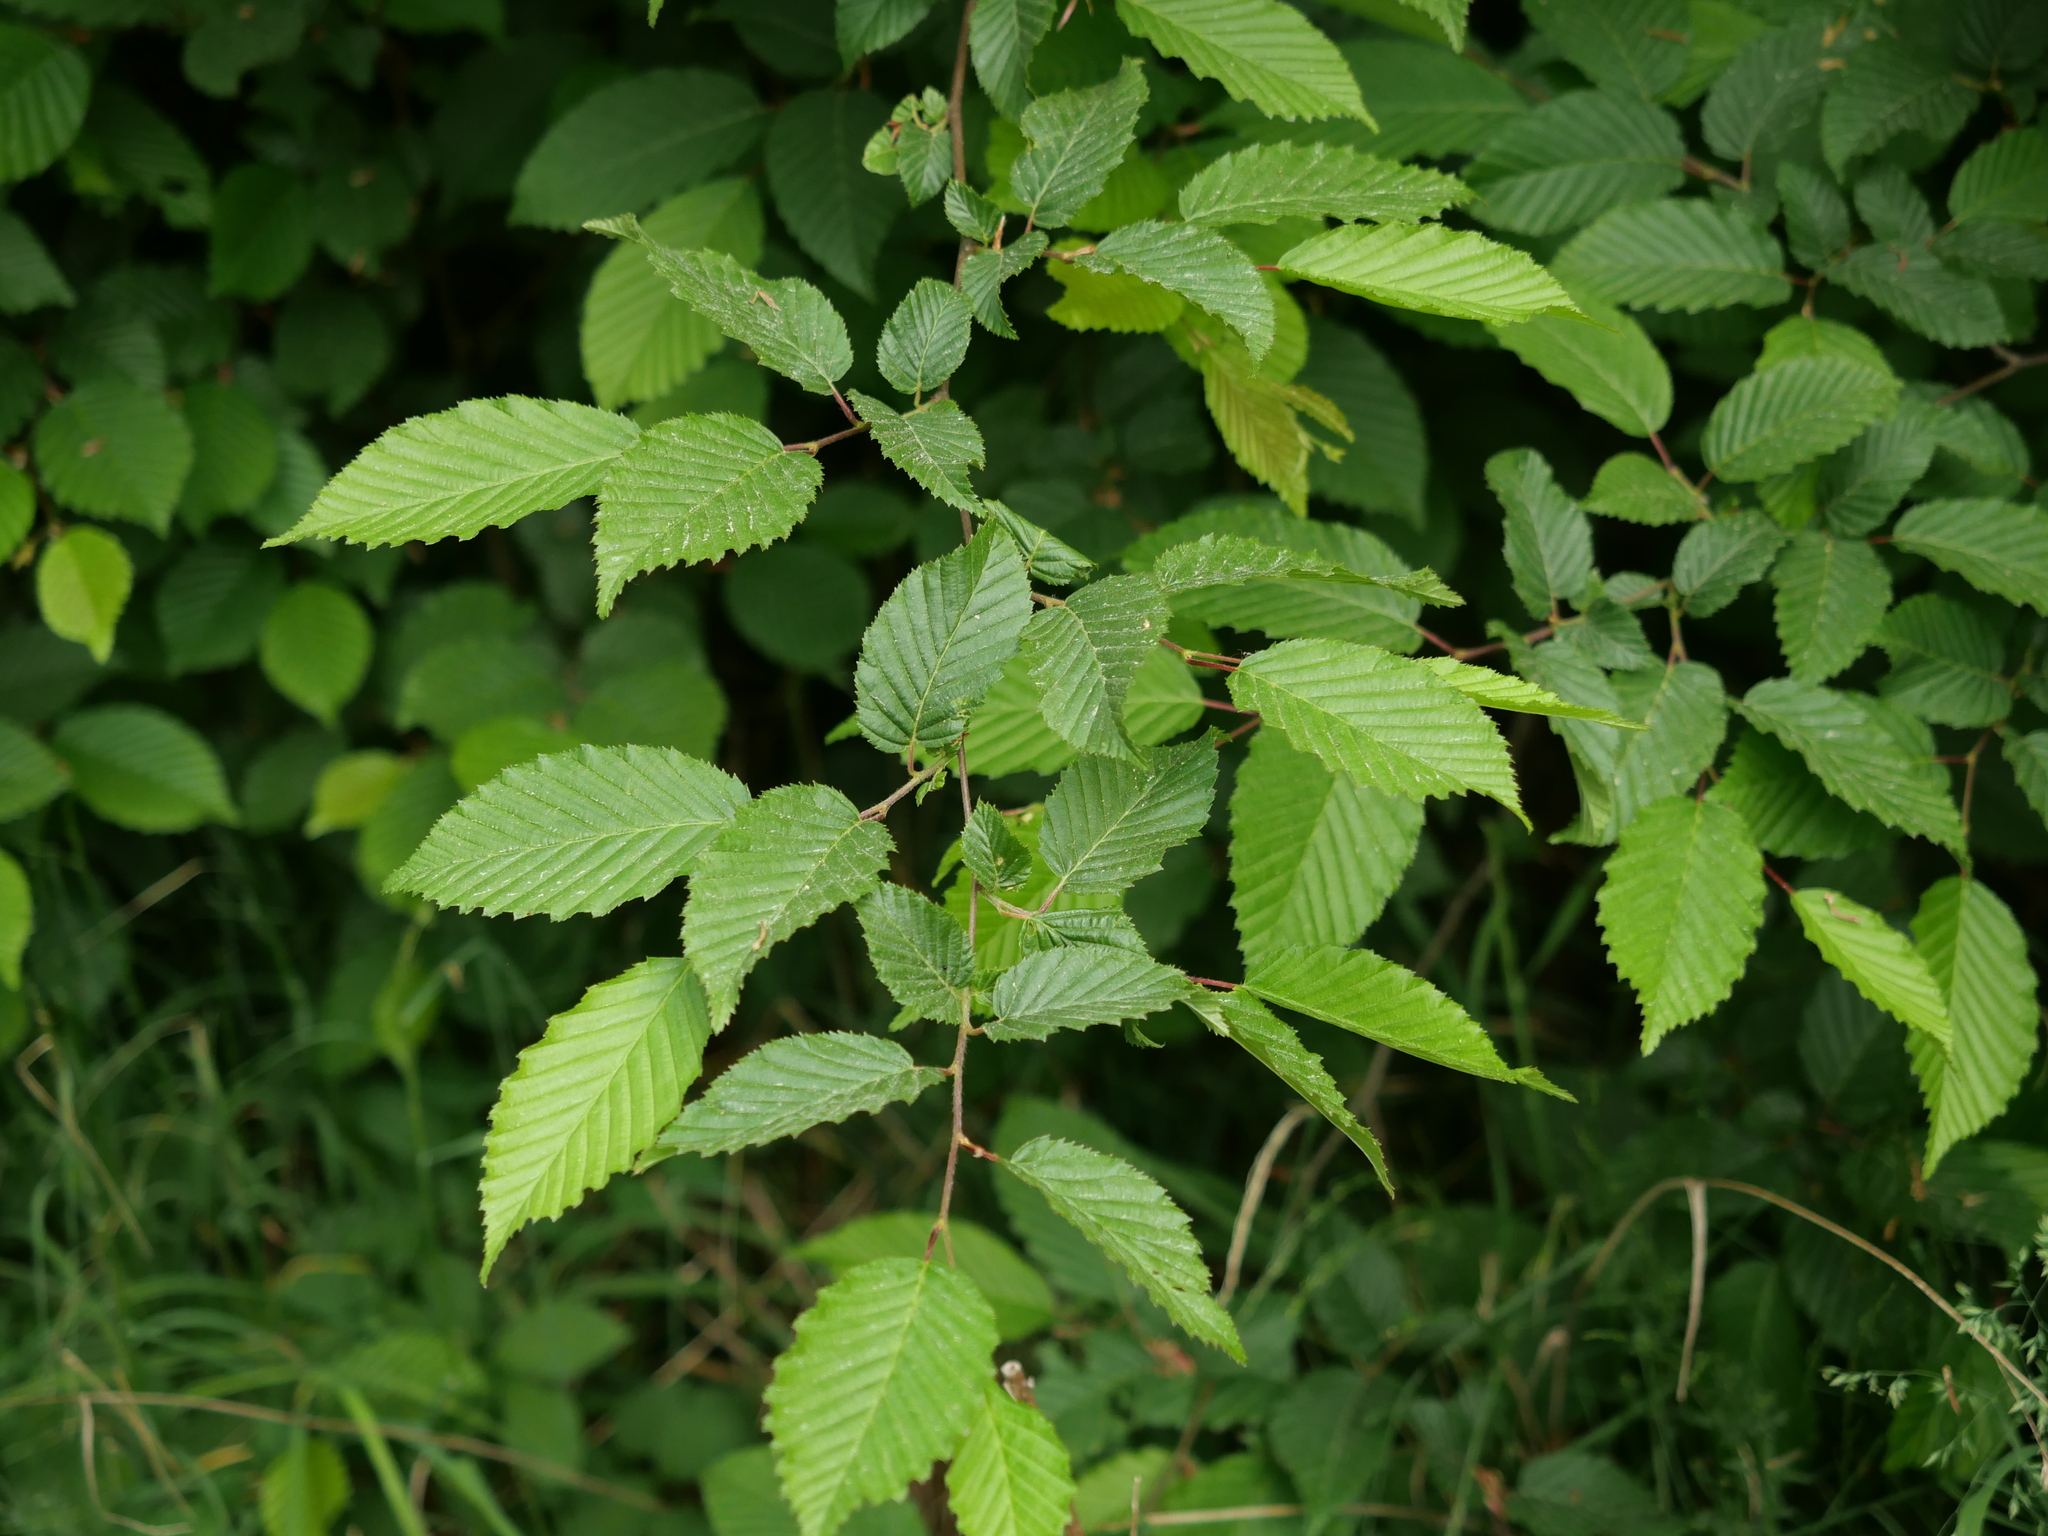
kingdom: Plantae
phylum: Tracheophyta
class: Magnoliopsida
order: Fagales
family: Betulaceae
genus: Carpinus
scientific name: Carpinus betulus
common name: Hornbeam
